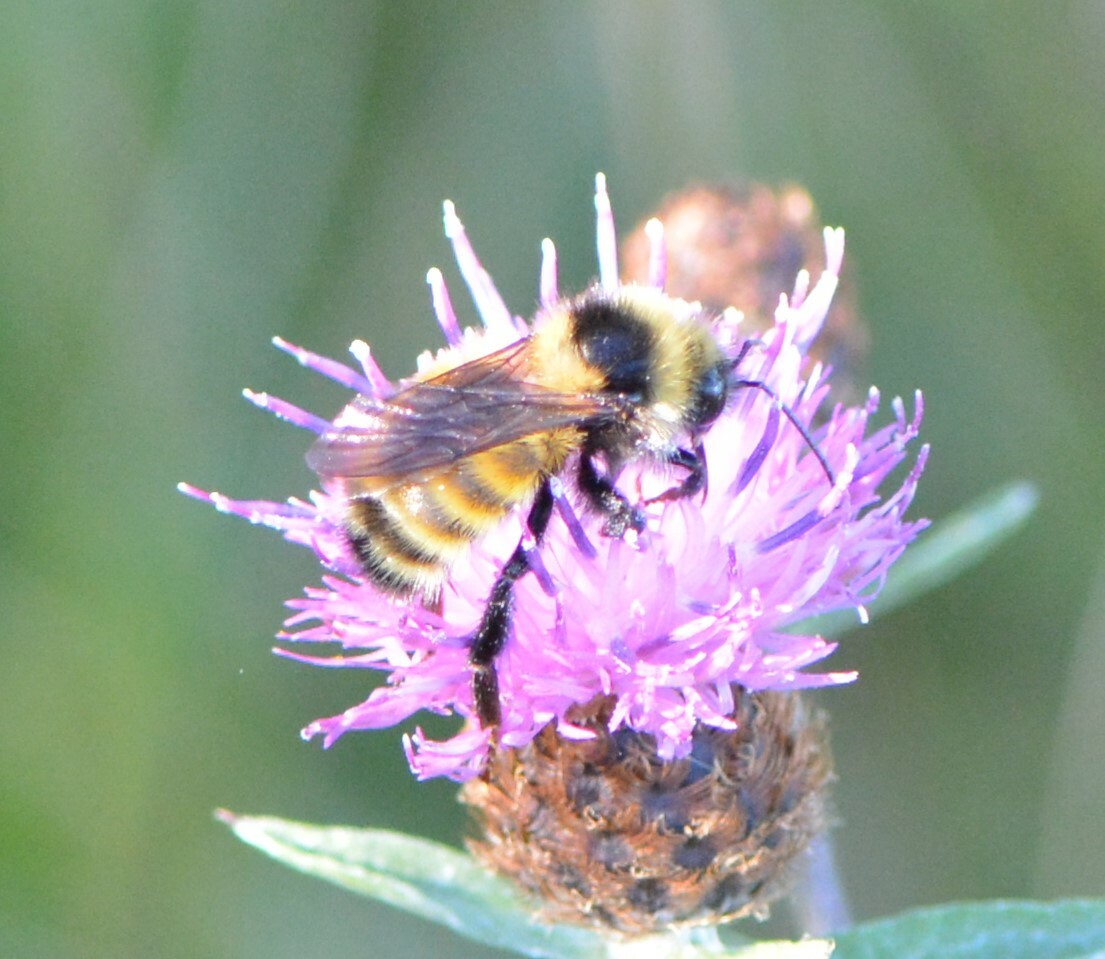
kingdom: Animalia
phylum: Arthropoda
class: Insecta
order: Hymenoptera
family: Apidae
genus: Bombus
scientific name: Bombus borealis
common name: Northern amber bumble bee
